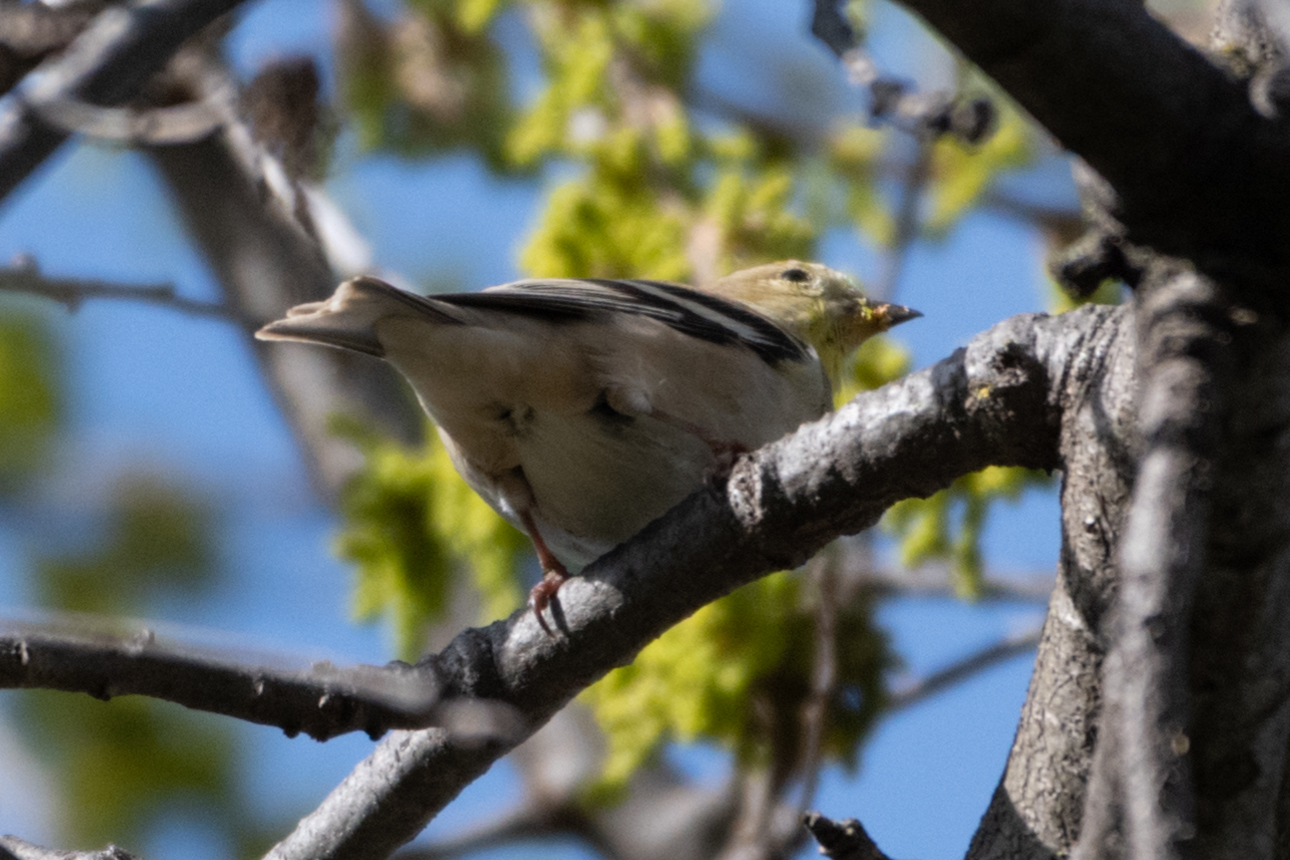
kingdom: Animalia
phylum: Chordata
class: Aves
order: Passeriformes
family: Fringillidae
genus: Spinus
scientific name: Spinus tristis
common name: American goldfinch
